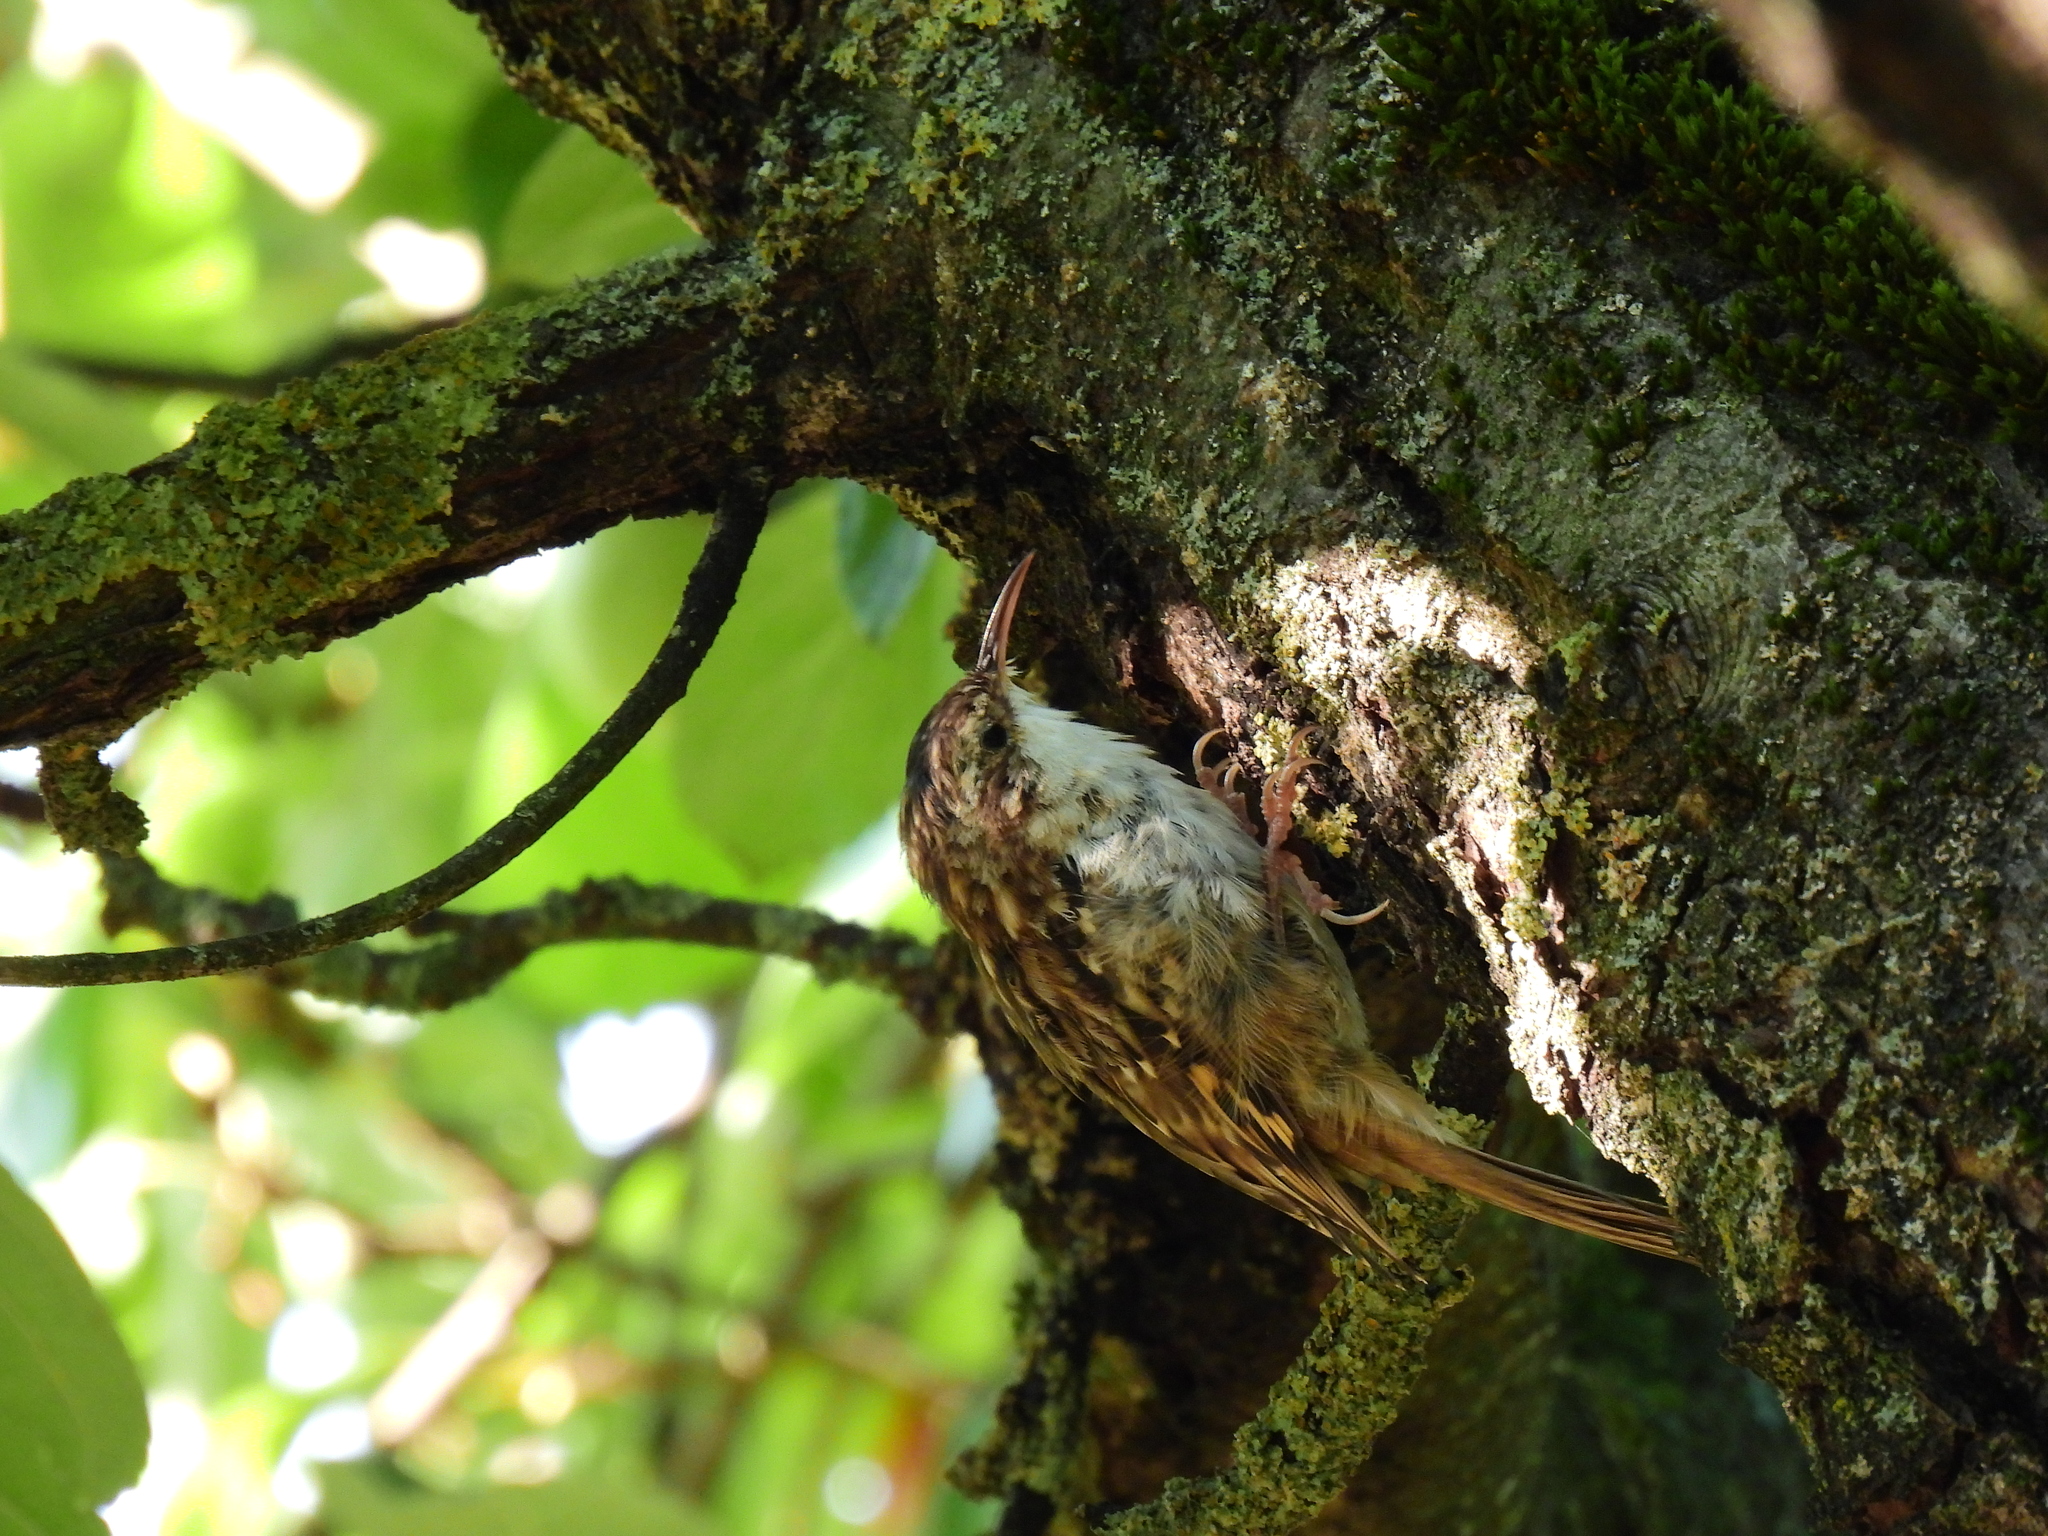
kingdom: Animalia
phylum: Chordata
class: Aves
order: Passeriformes
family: Certhiidae
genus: Certhia
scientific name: Certhia brachydactyla
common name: Short-toed treecreeper
